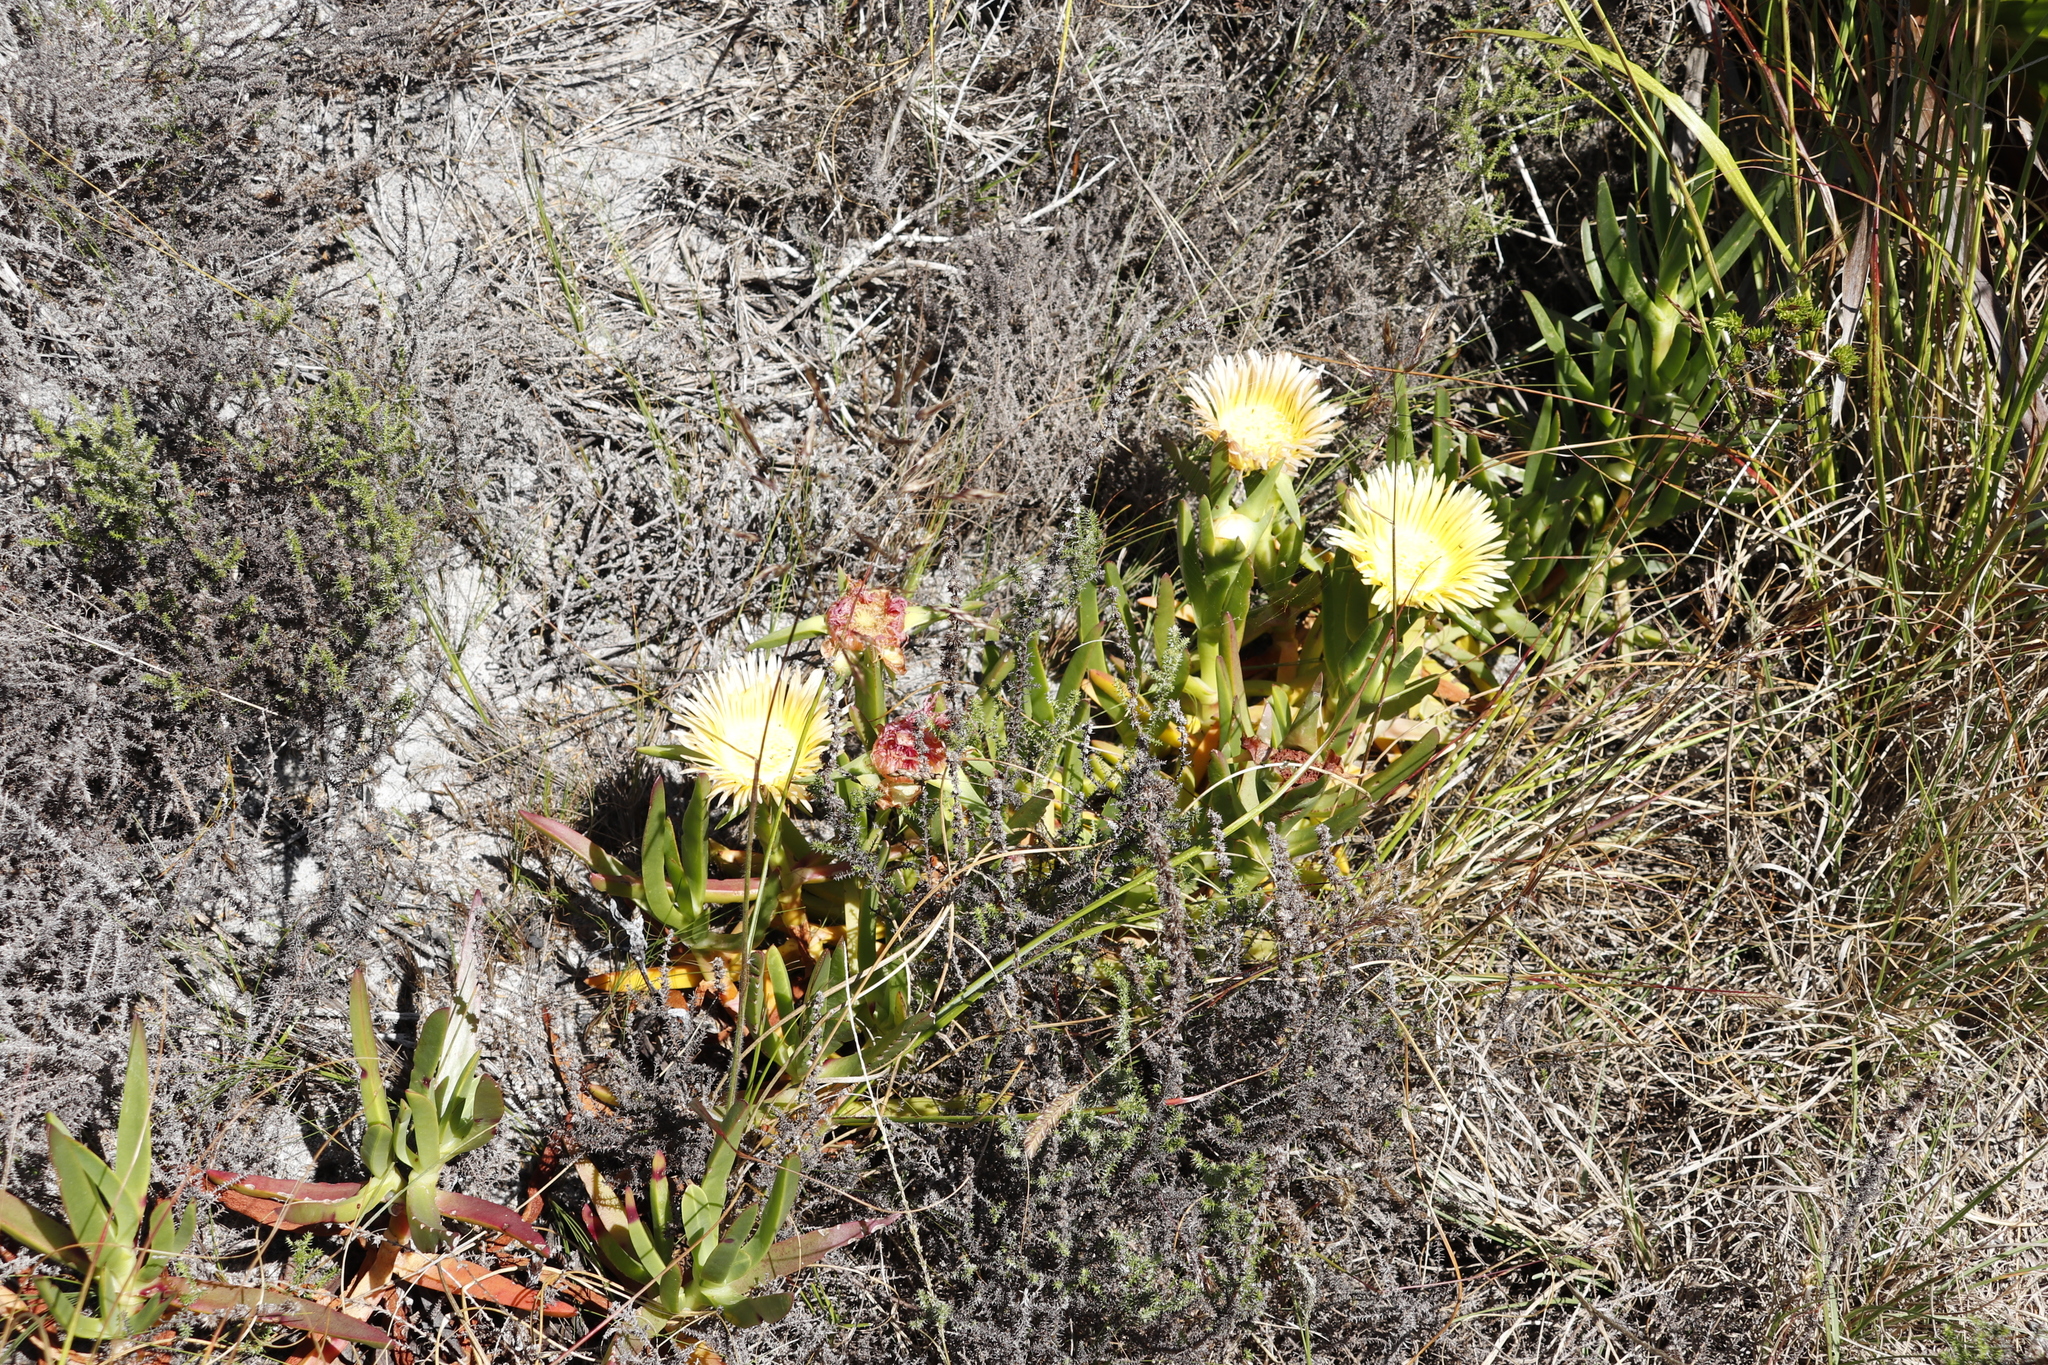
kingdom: Plantae
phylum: Tracheophyta
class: Magnoliopsida
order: Caryophyllales
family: Aizoaceae
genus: Carpobrotus
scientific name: Carpobrotus edulis
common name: Hottentot-fig
